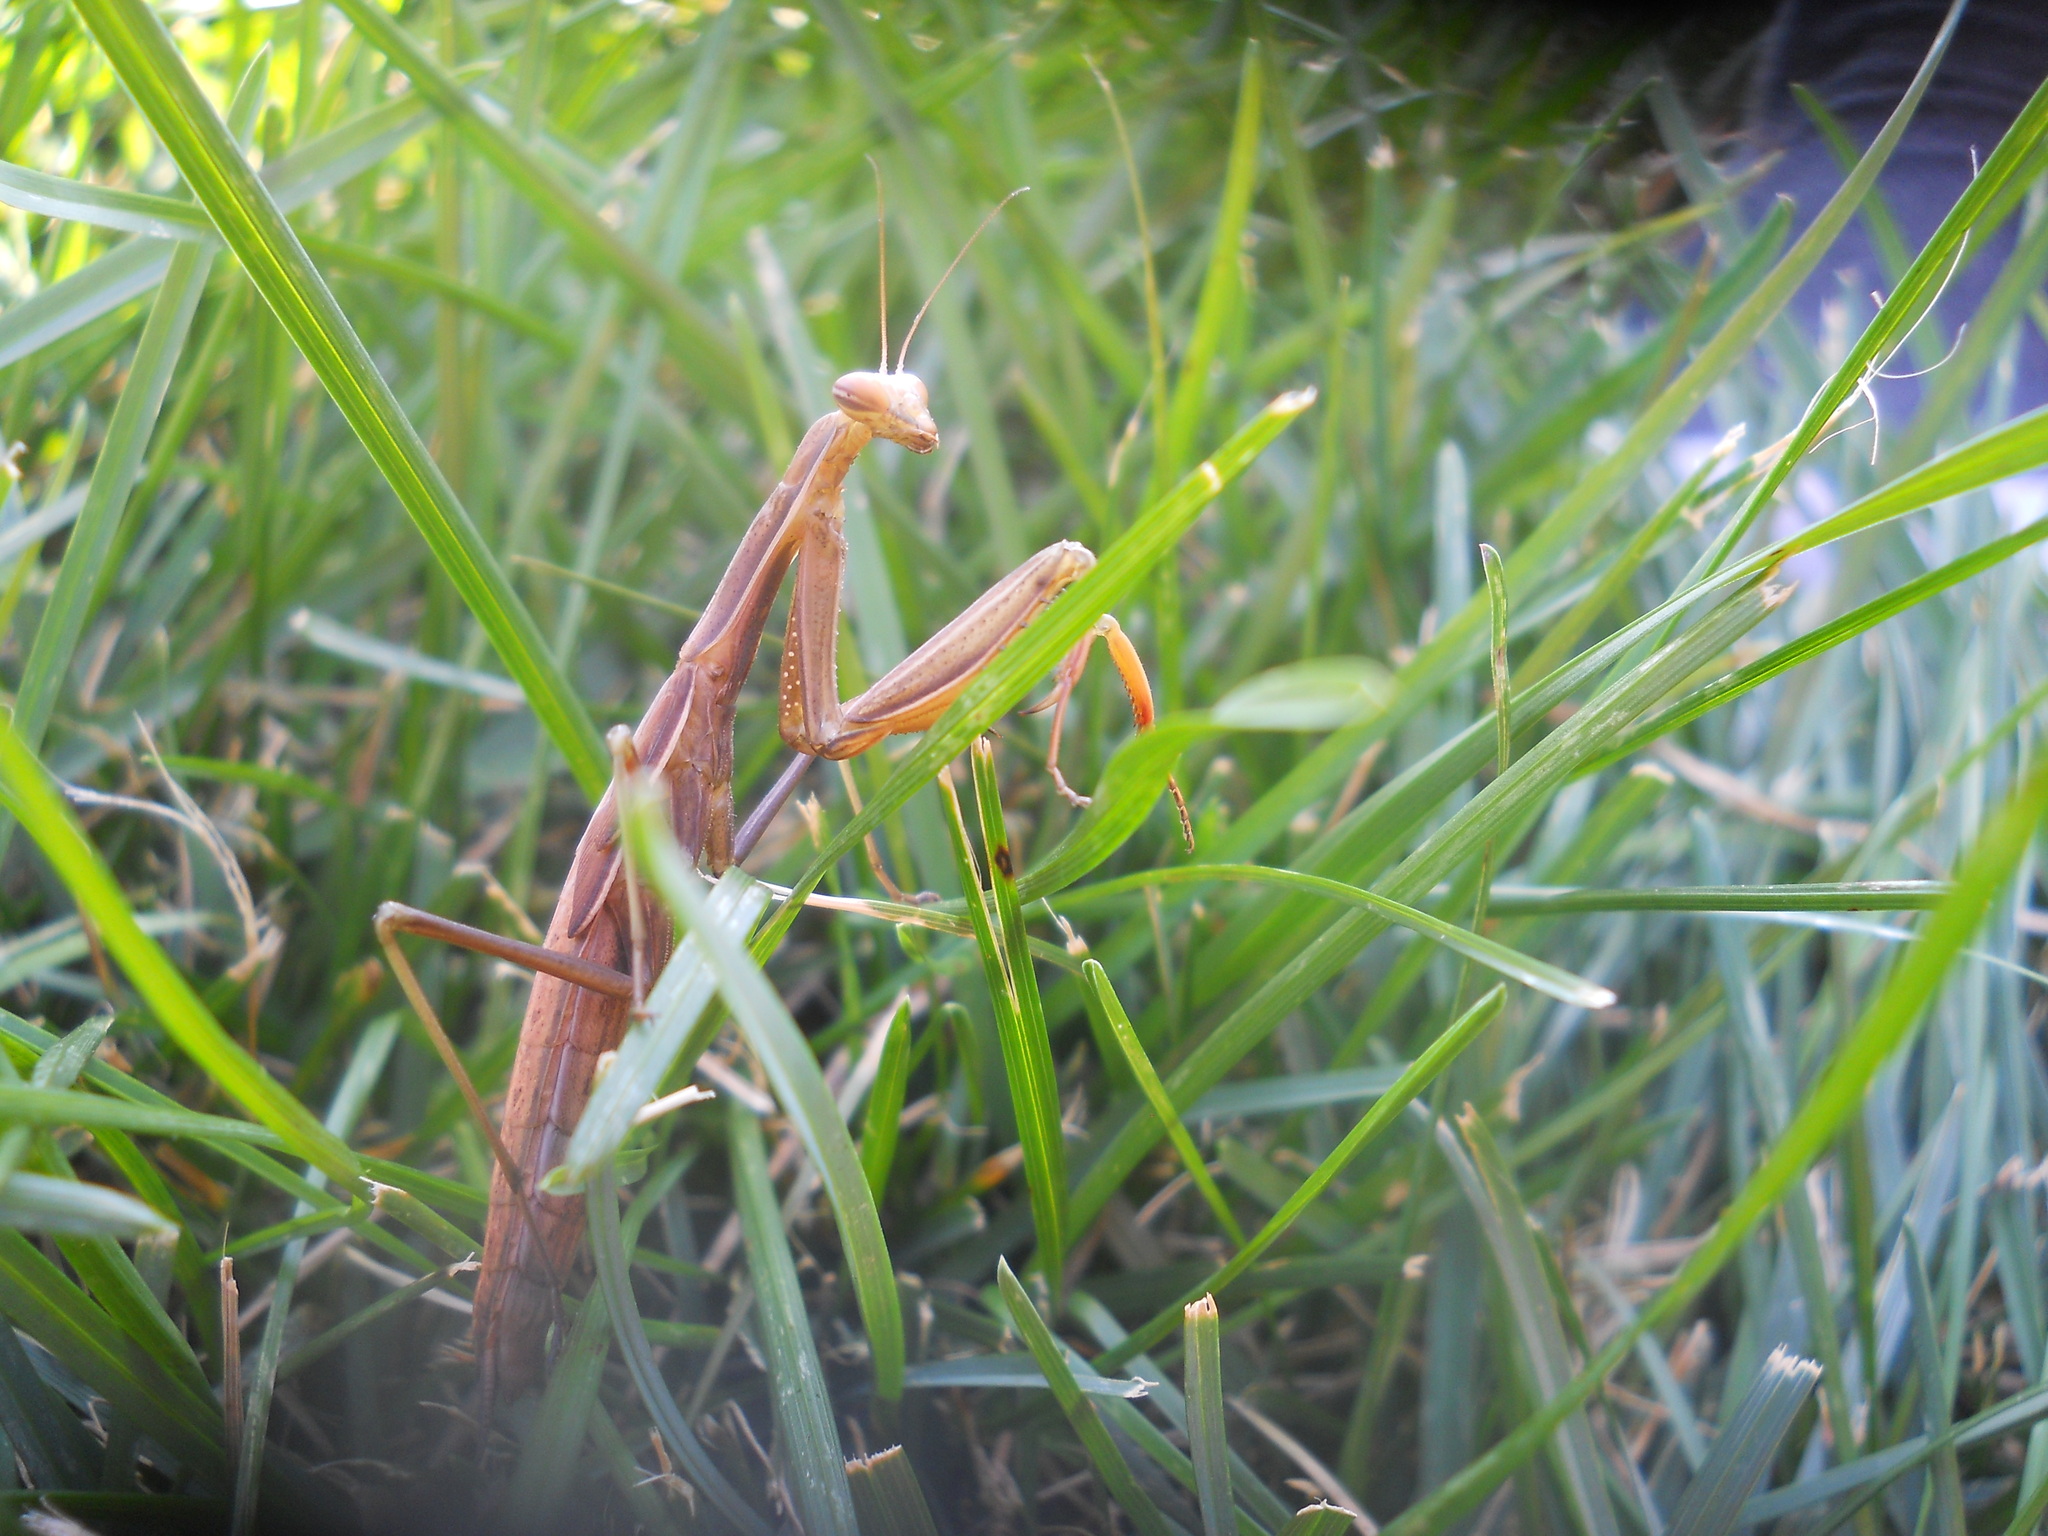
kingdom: Animalia
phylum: Arthropoda
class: Insecta
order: Mantodea
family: Mantidae
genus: Mantis
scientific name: Mantis religiosa
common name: Praying mantis
